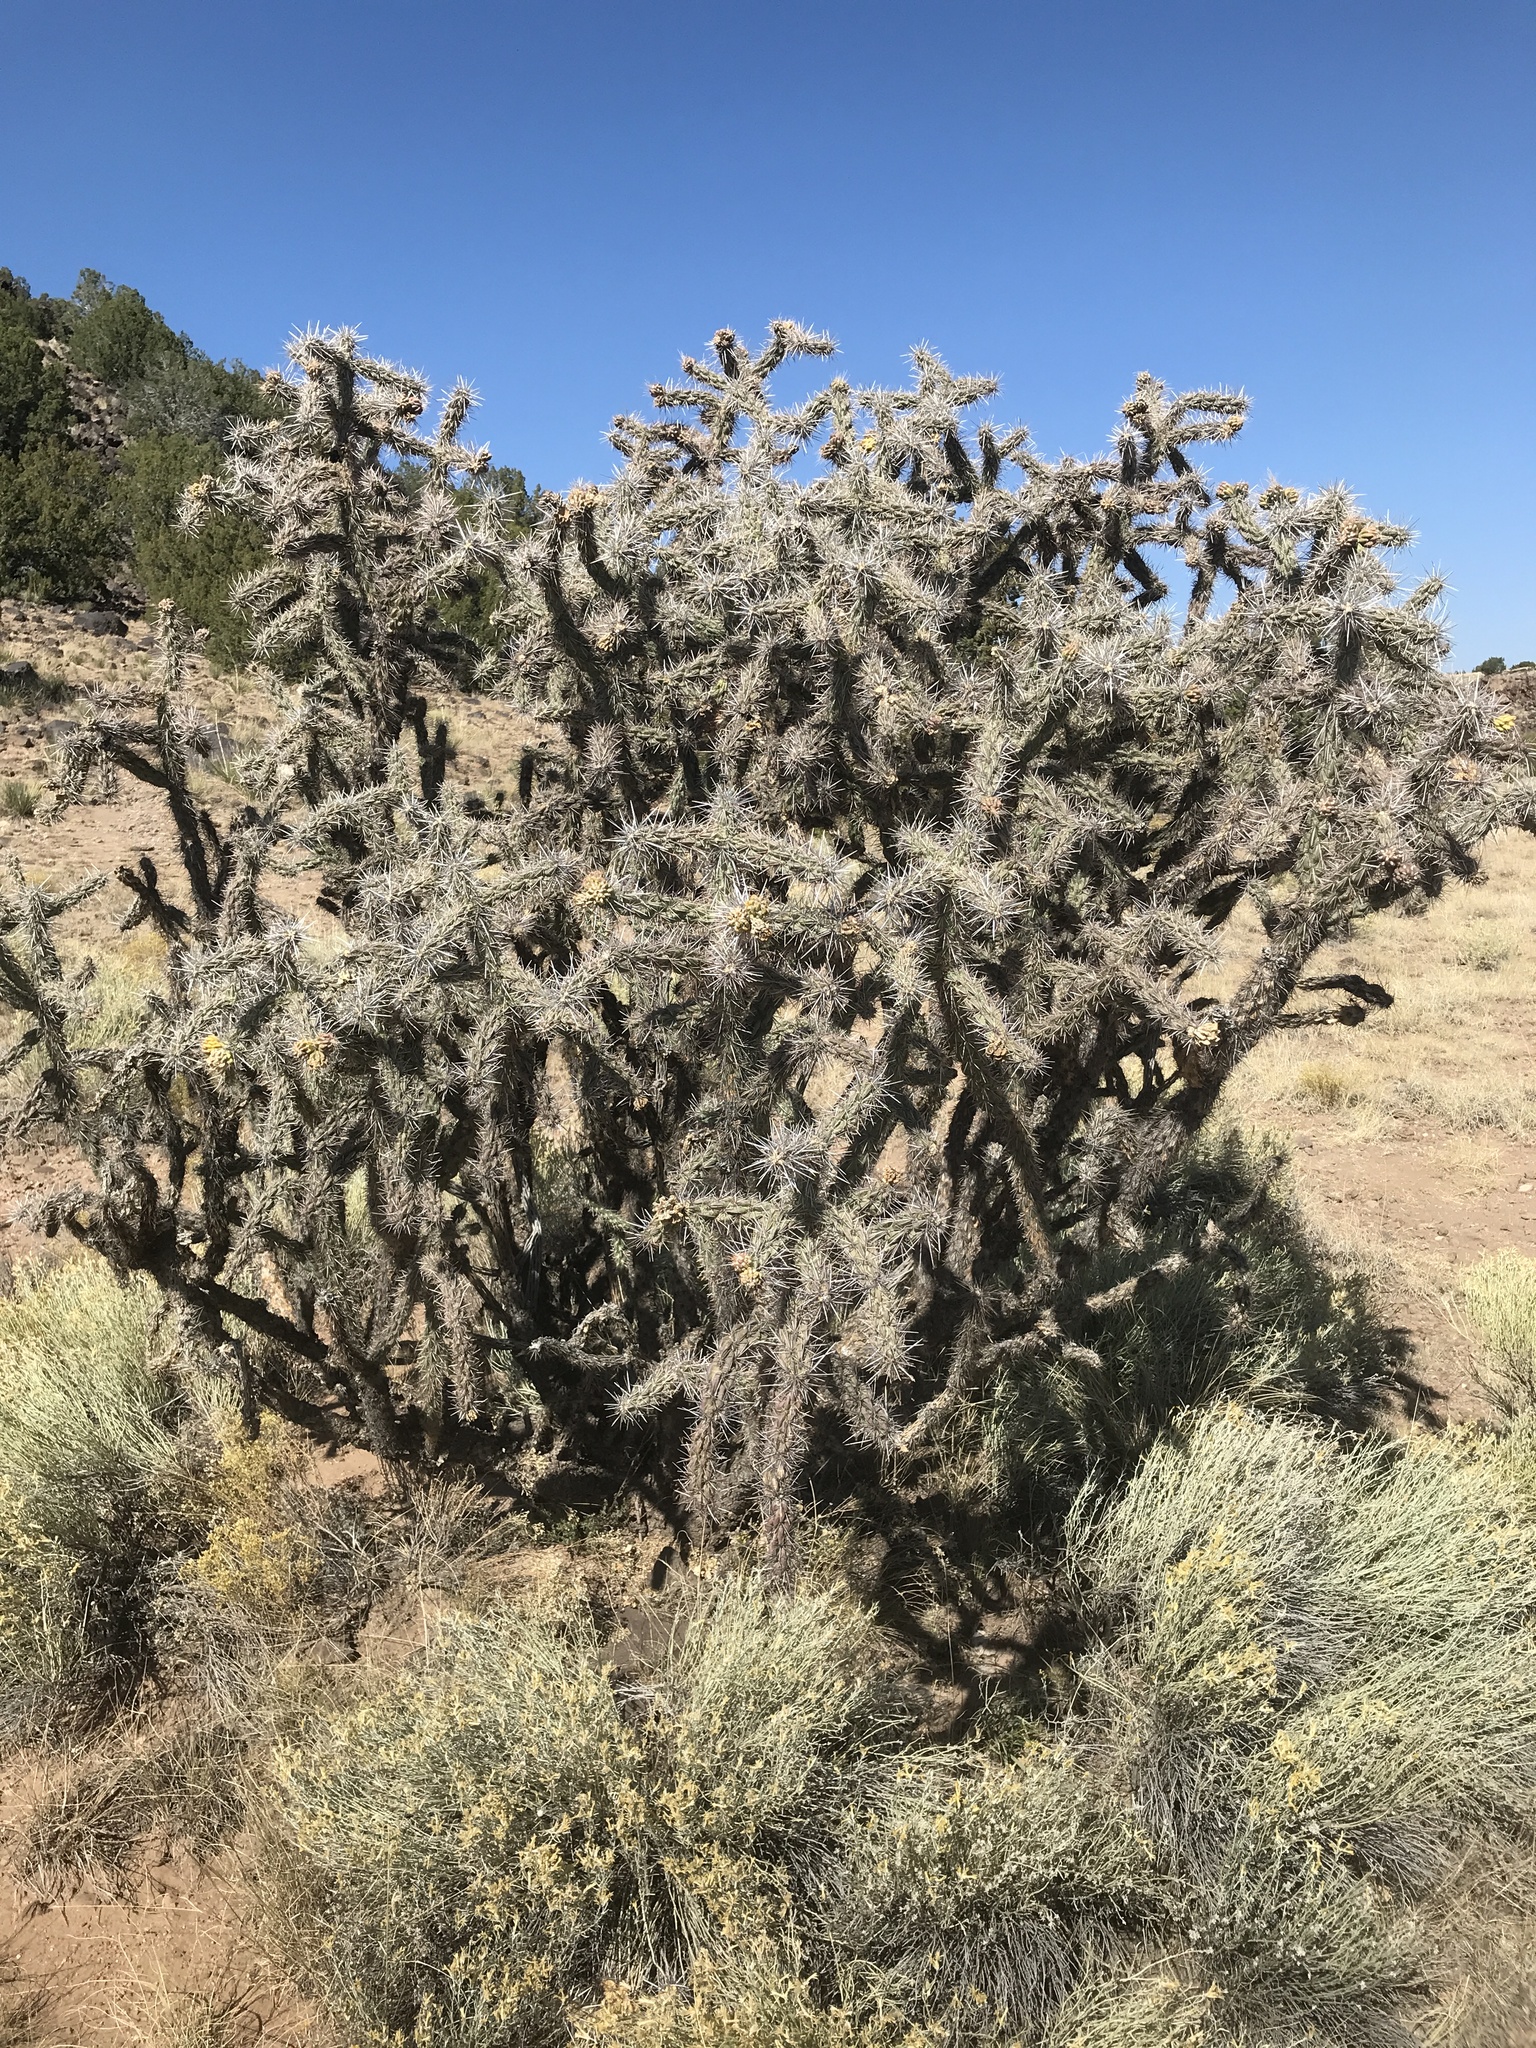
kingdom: Plantae
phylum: Tracheophyta
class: Magnoliopsida
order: Caryophyllales
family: Cactaceae
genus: Cylindropuntia
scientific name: Cylindropuntia imbricata
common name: Candelabrum cactus
